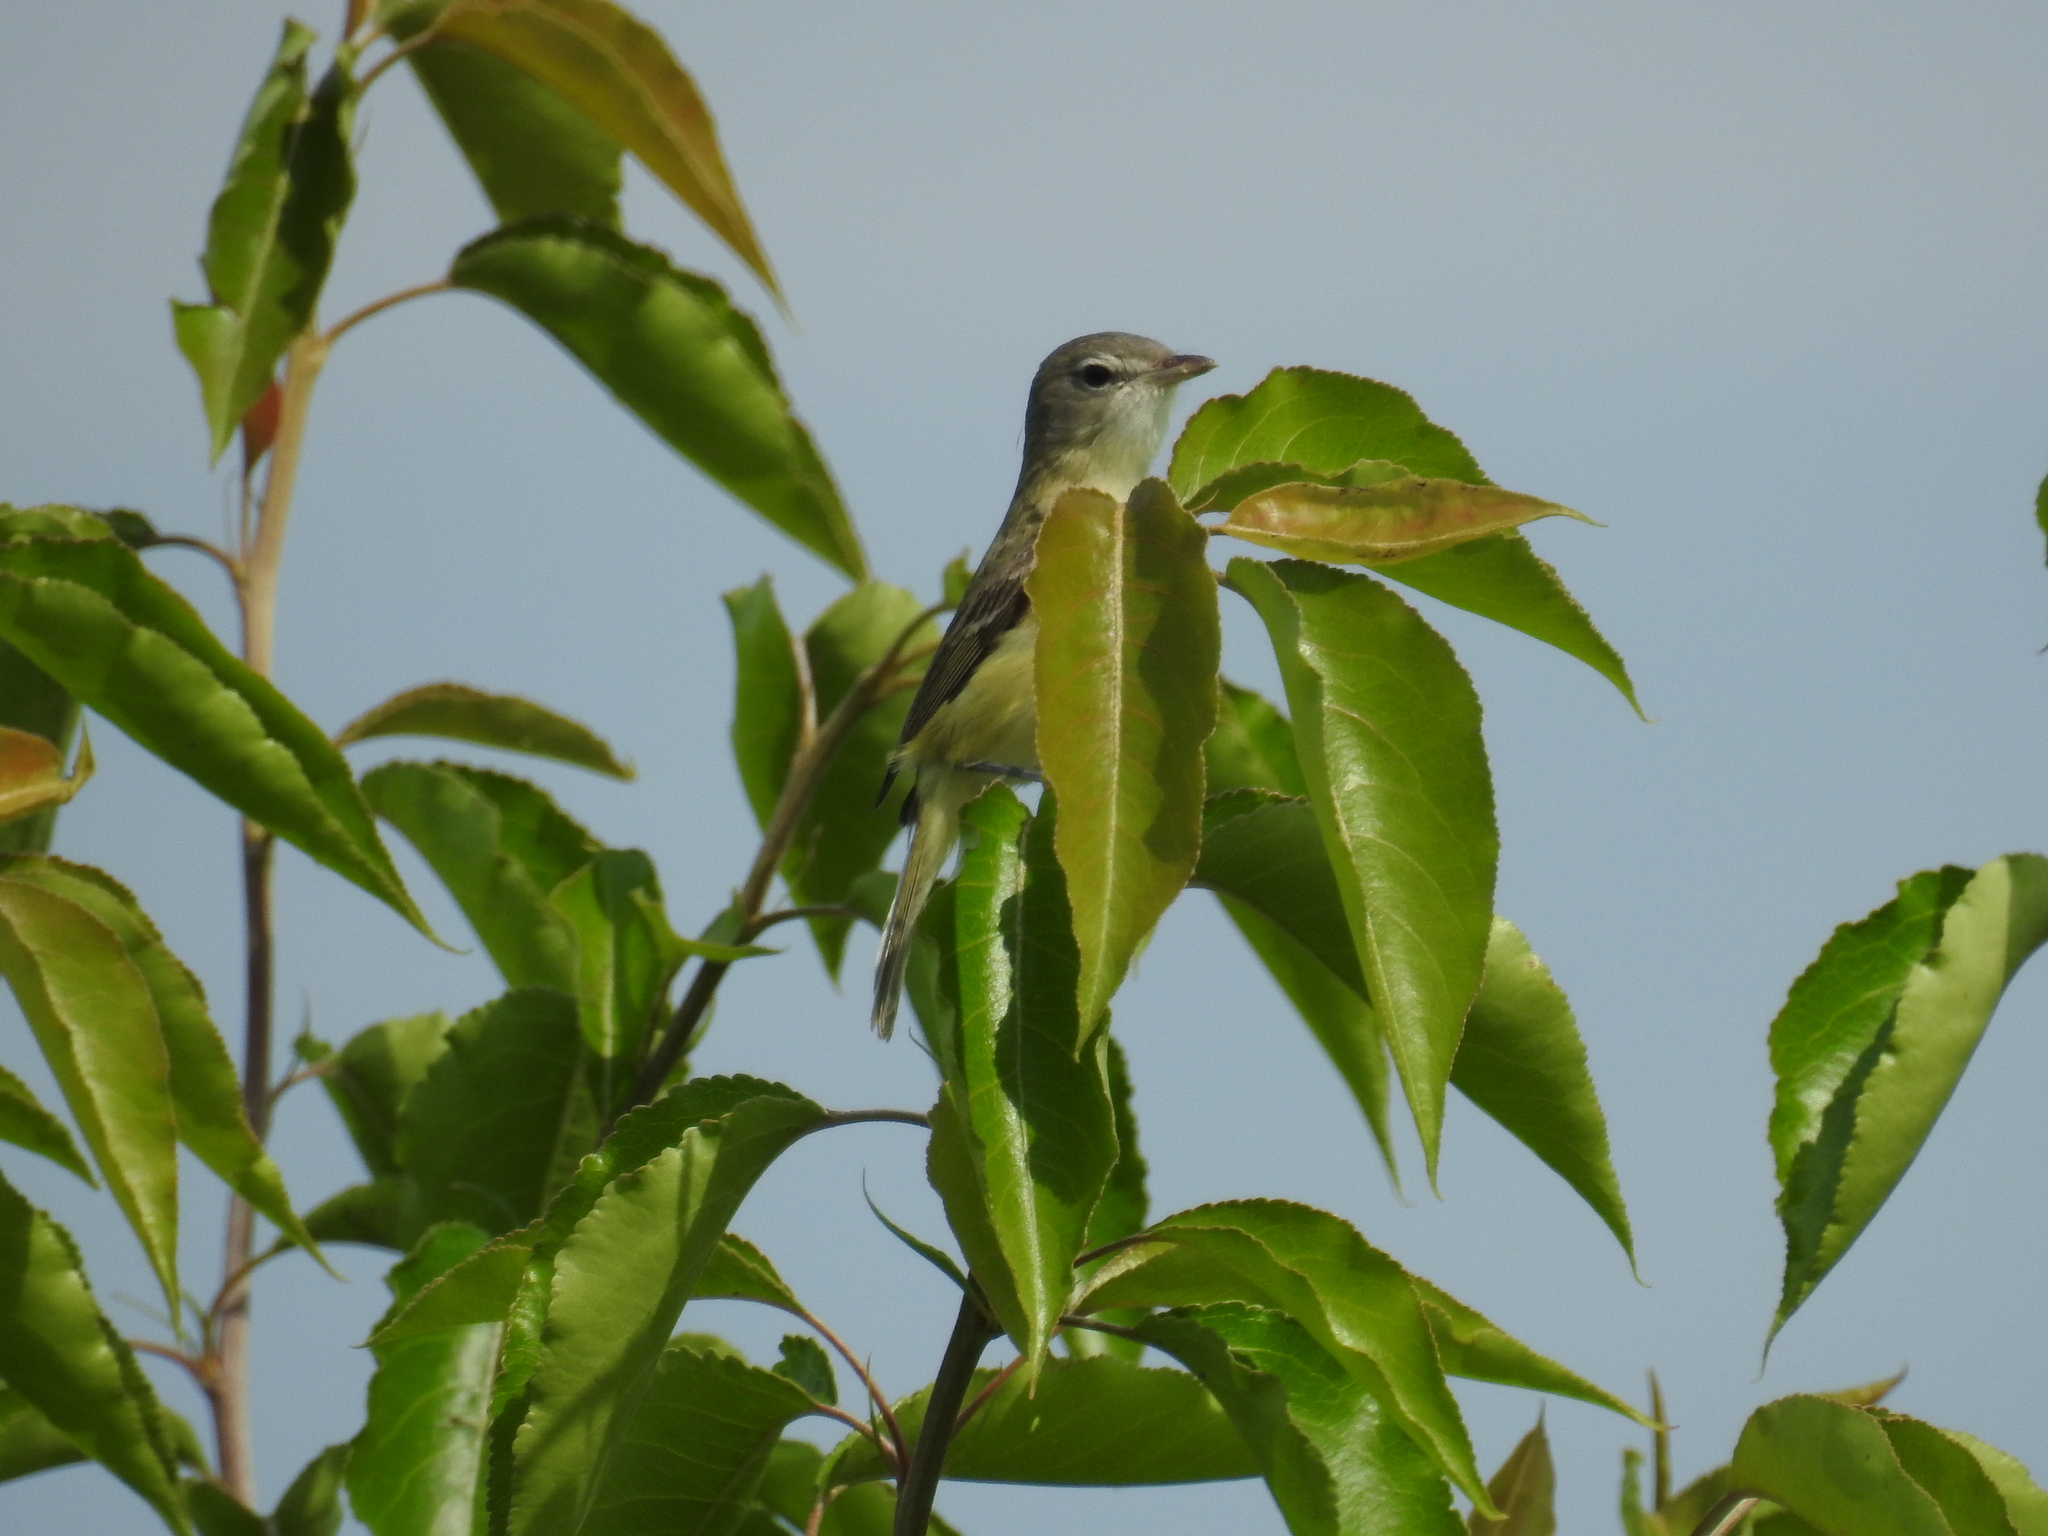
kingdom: Animalia
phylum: Chordata
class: Aves
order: Passeriformes
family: Vireonidae
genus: Vireo
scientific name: Vireo bellii
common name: Bell's vireo
